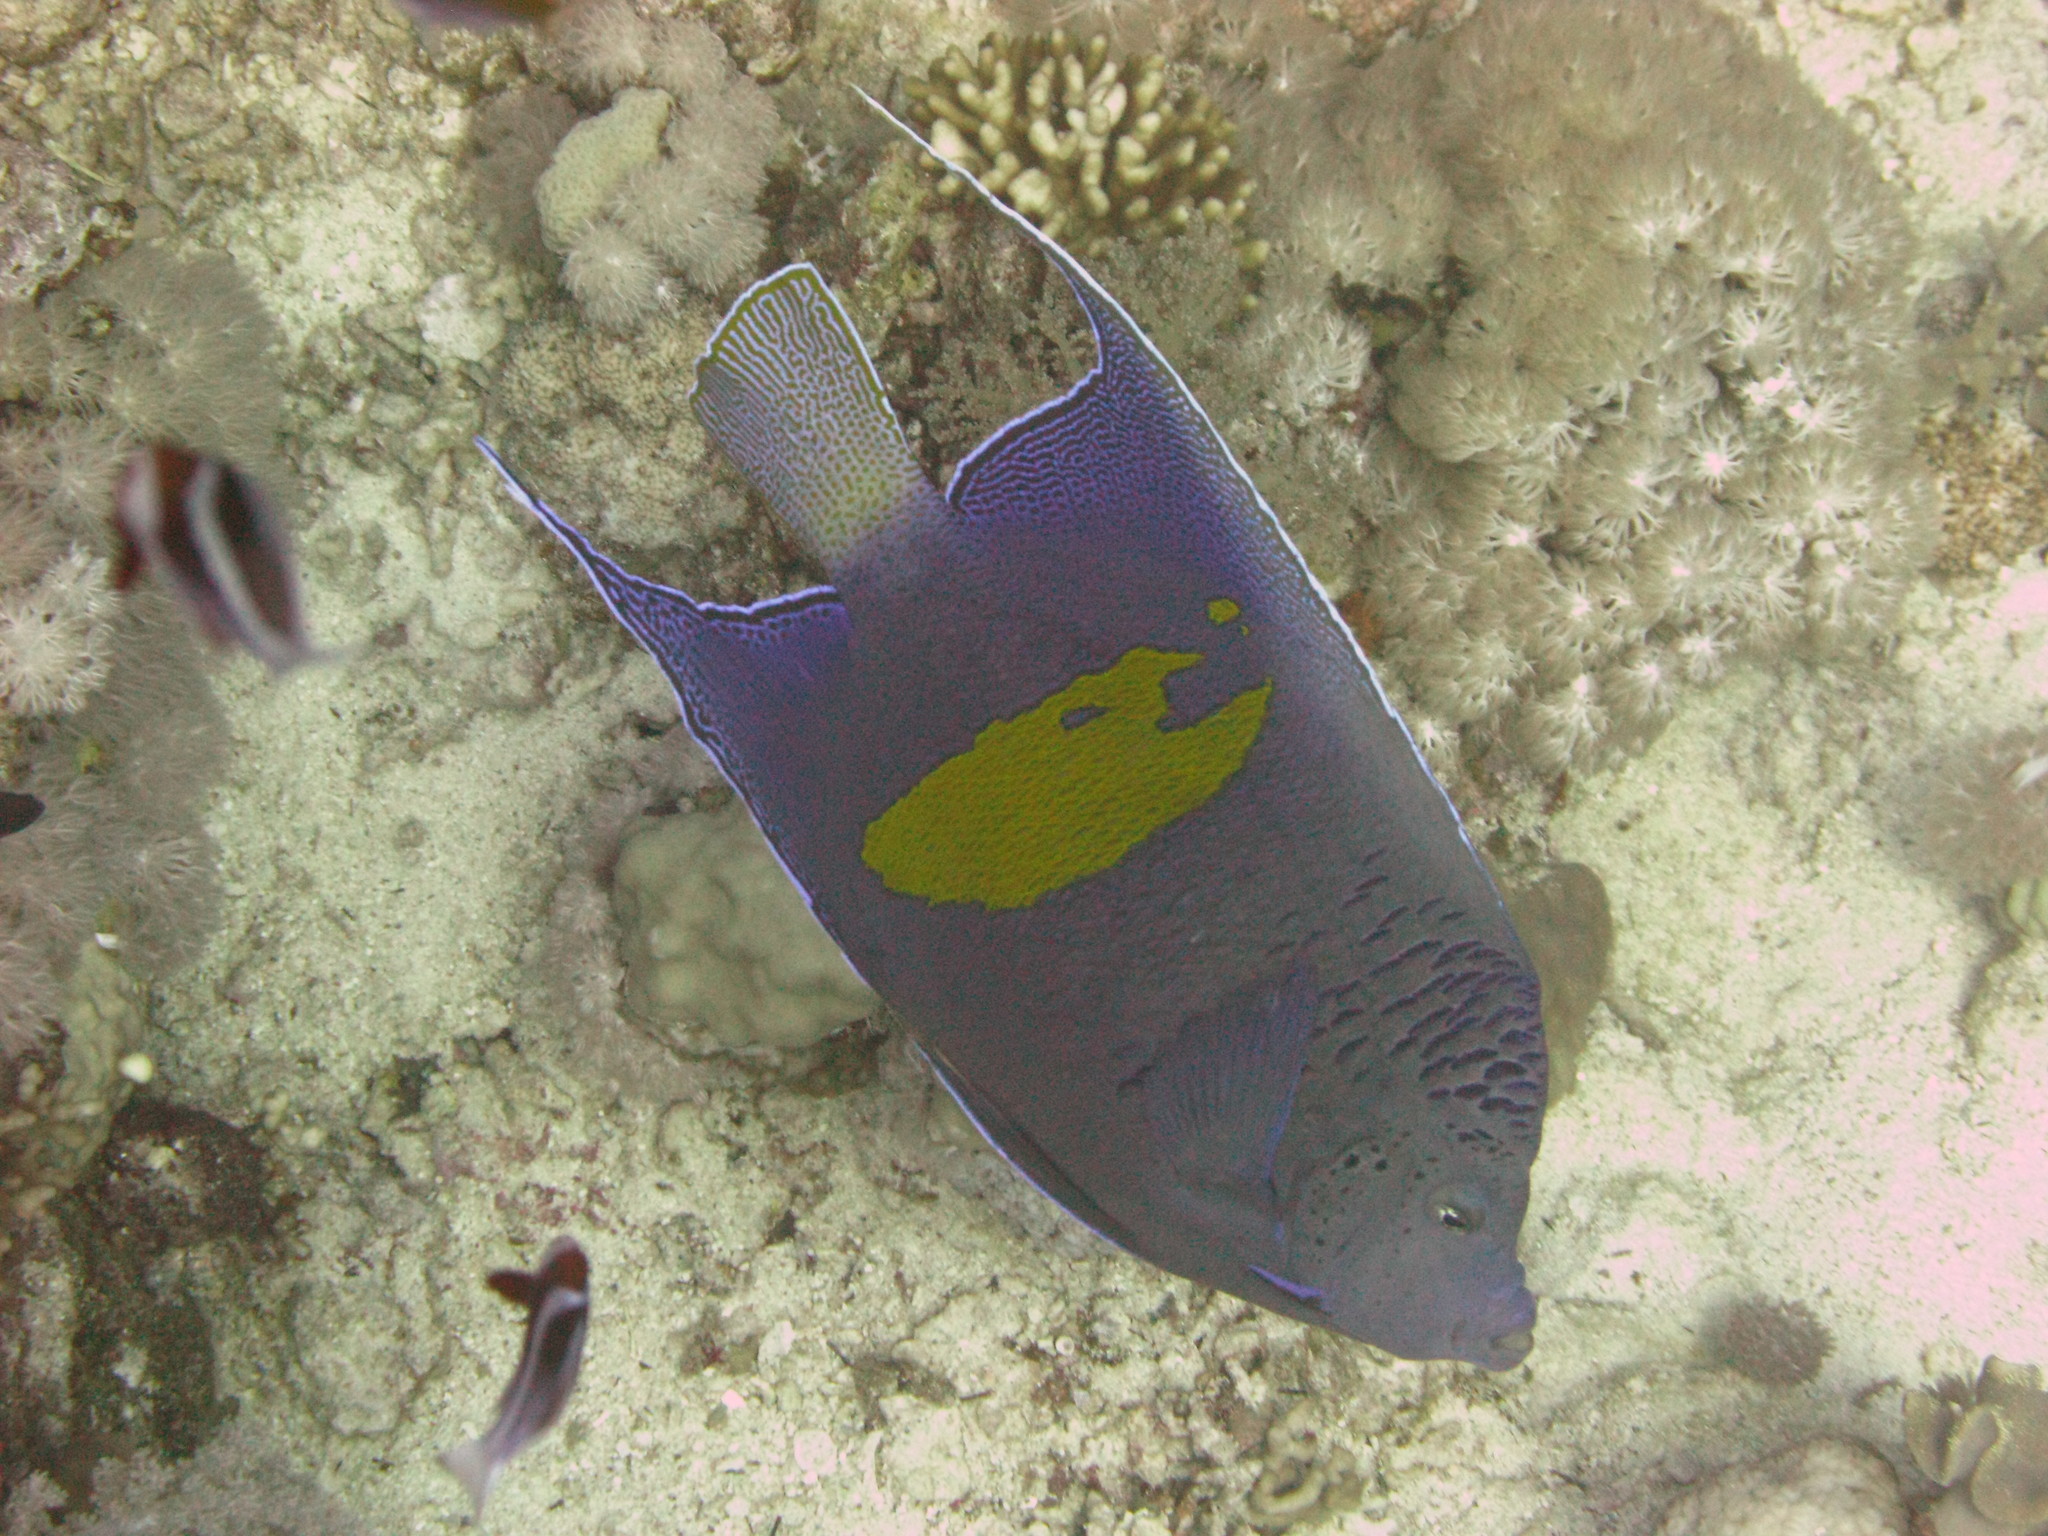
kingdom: Animalia
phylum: Chordata
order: Perciformes
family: Pomacanthidae
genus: Pomacanthus
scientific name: Pomacanthus maculosus
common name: Yellowbar angelfish
